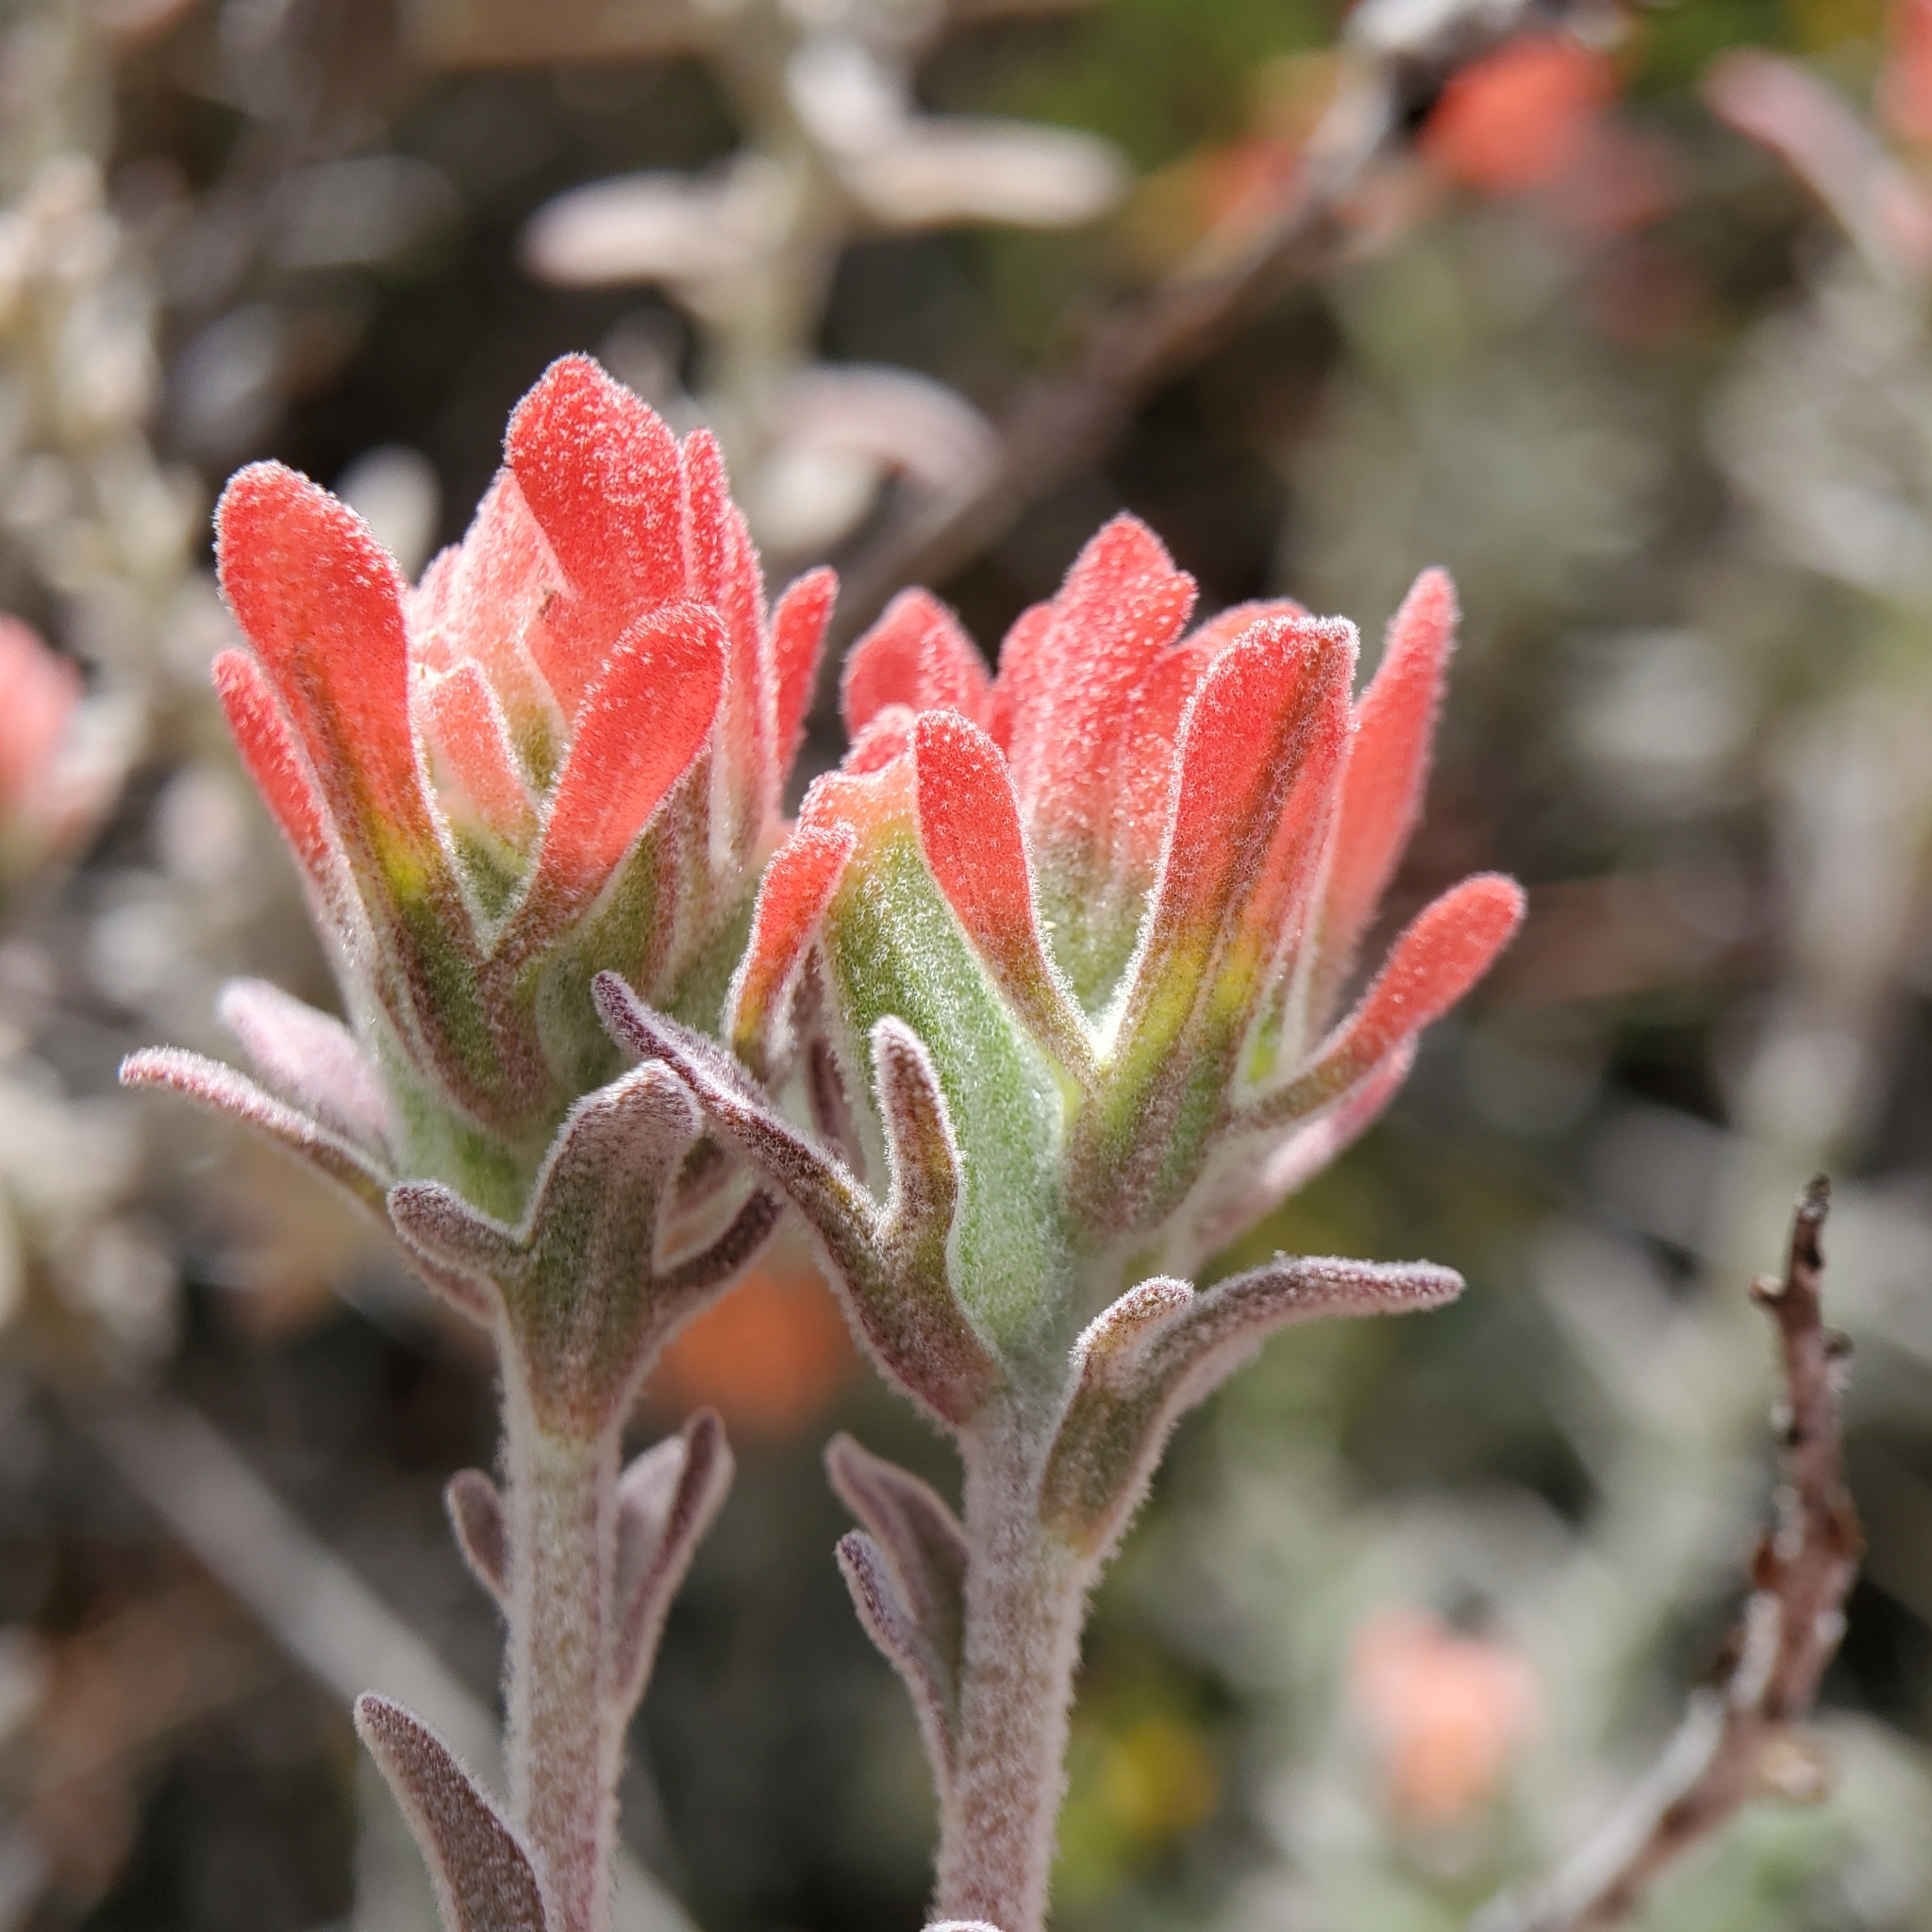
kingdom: Plantae
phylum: Tracheophyta
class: Magnoliopsida
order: Lamiales
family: Orobanchaceae
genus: Castilleja
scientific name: Castilleja foliolosa
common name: Woolly indian paintbrush
